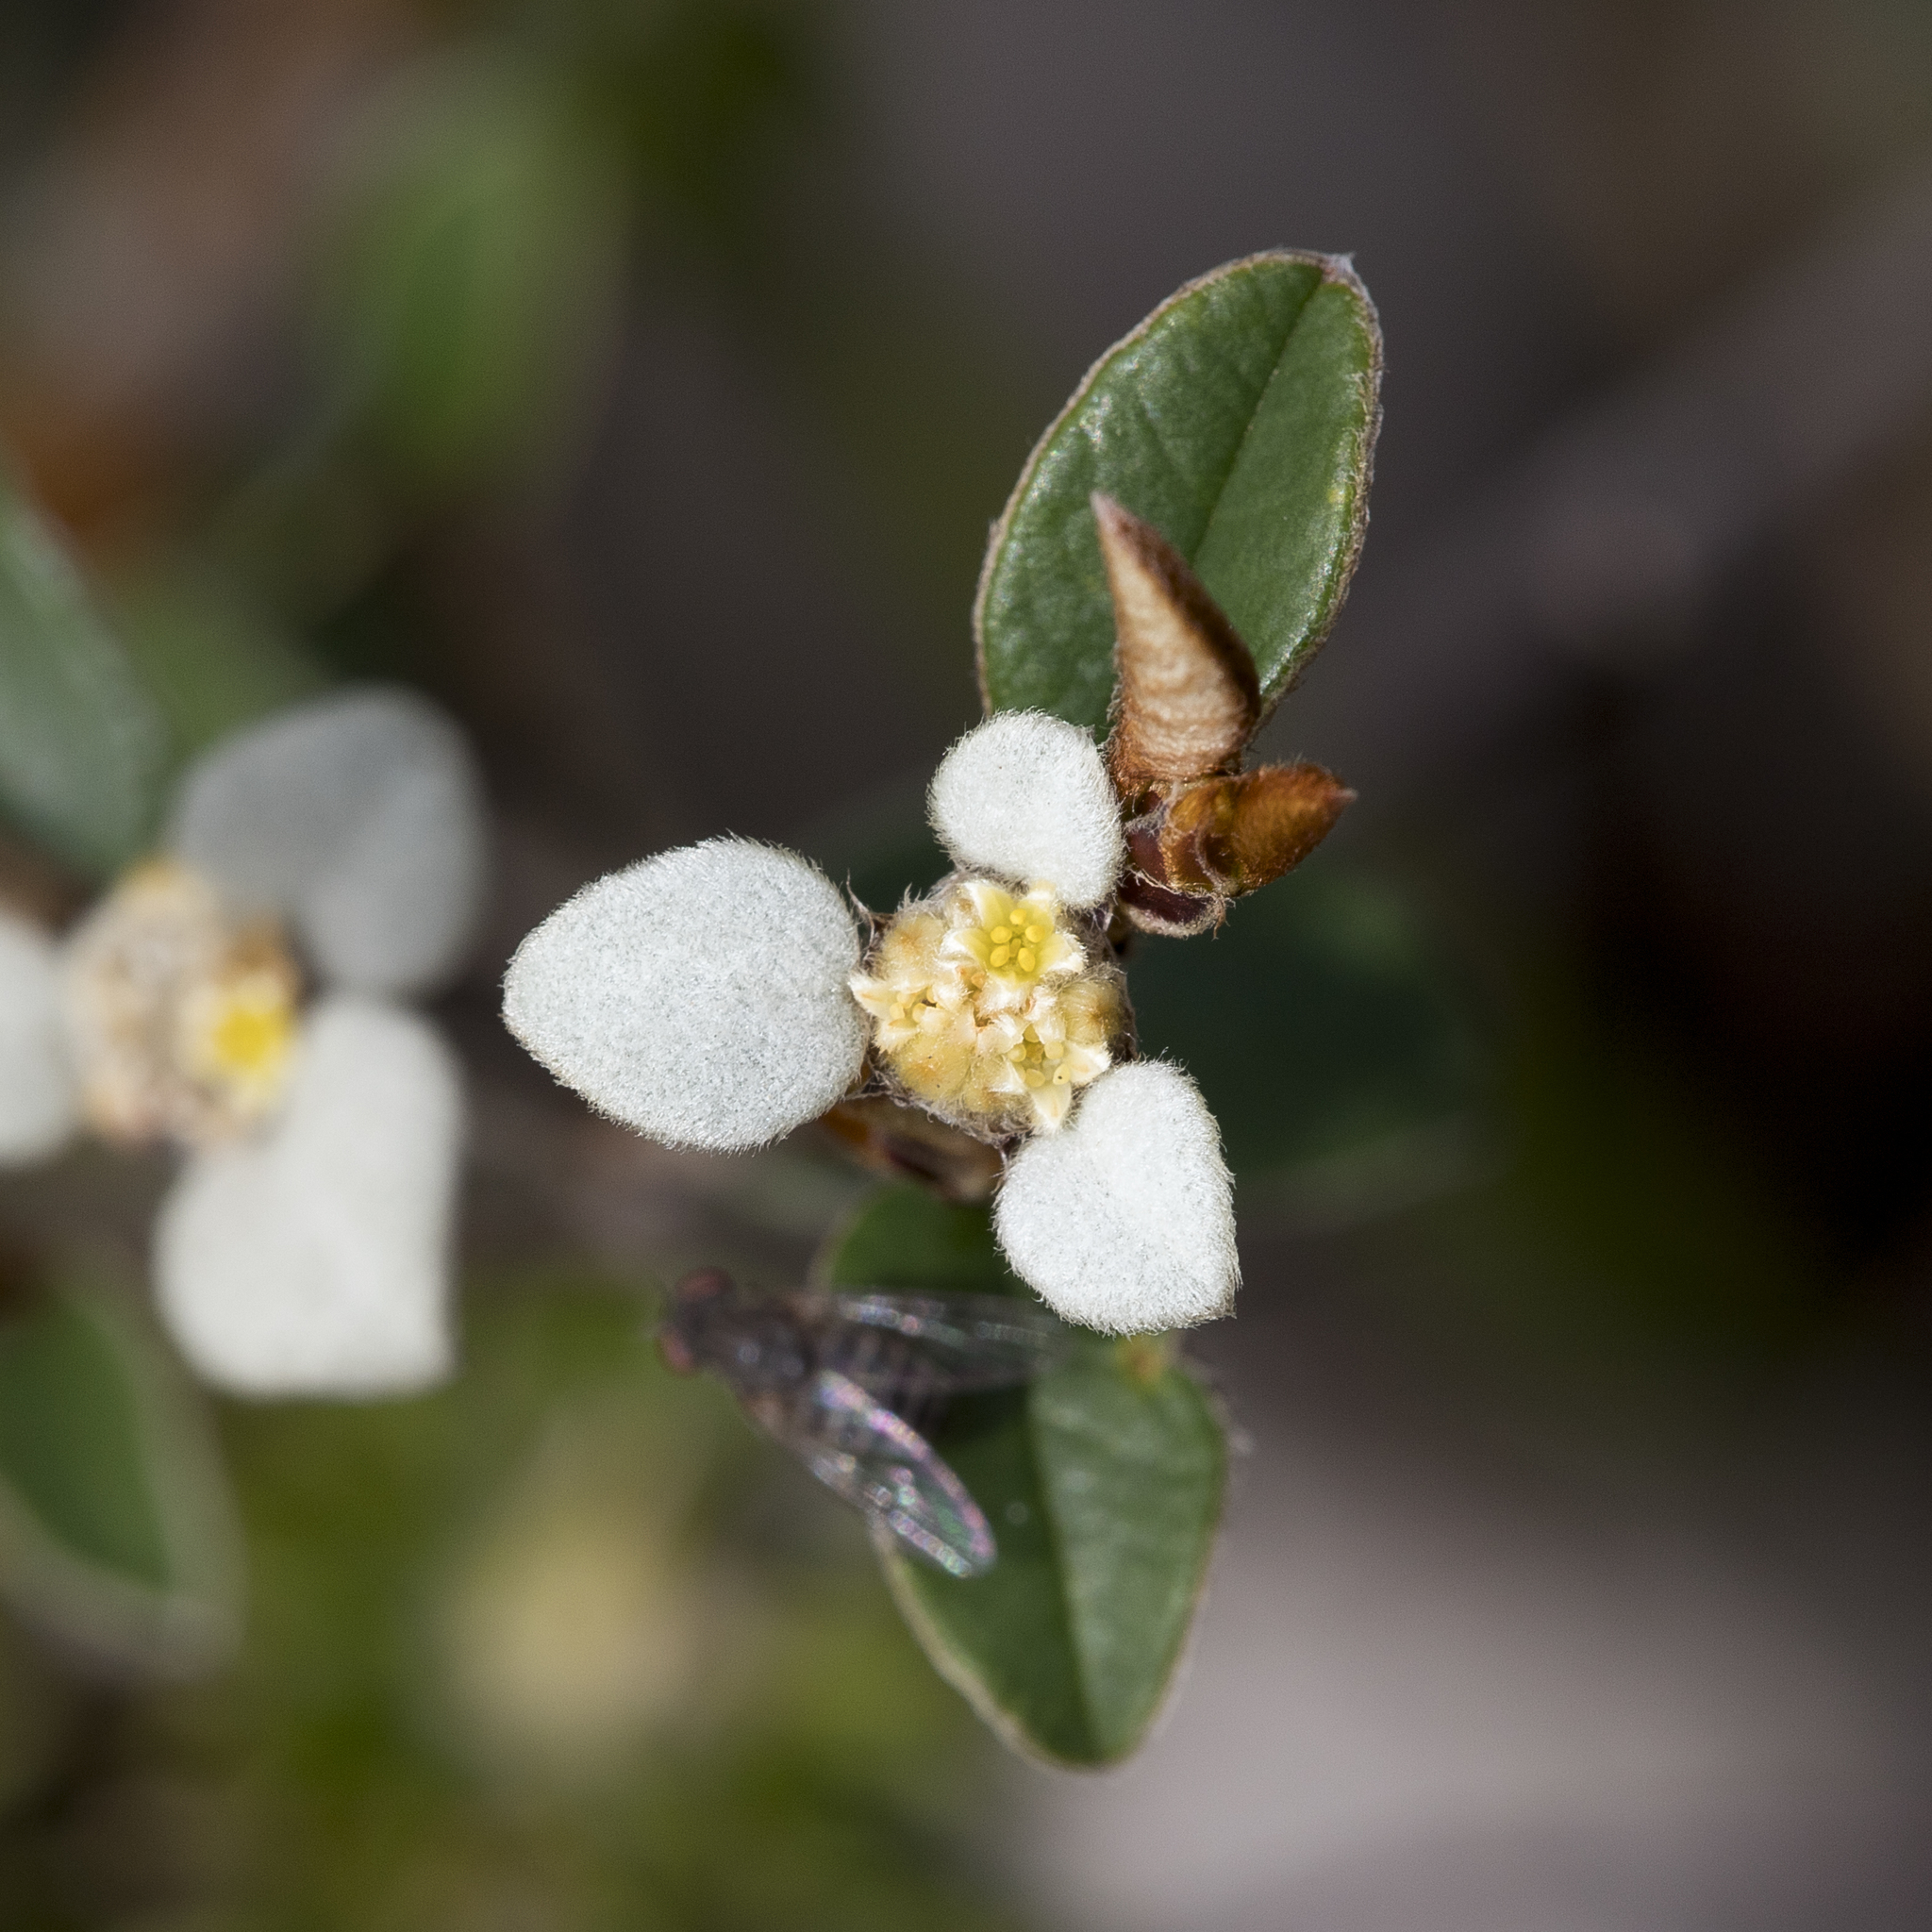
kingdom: Plantae
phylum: Tracheophyta
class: Magnoliopsida
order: Rosales
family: Rhamnaceae
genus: Spyridium
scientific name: Spyridium thymifolium
